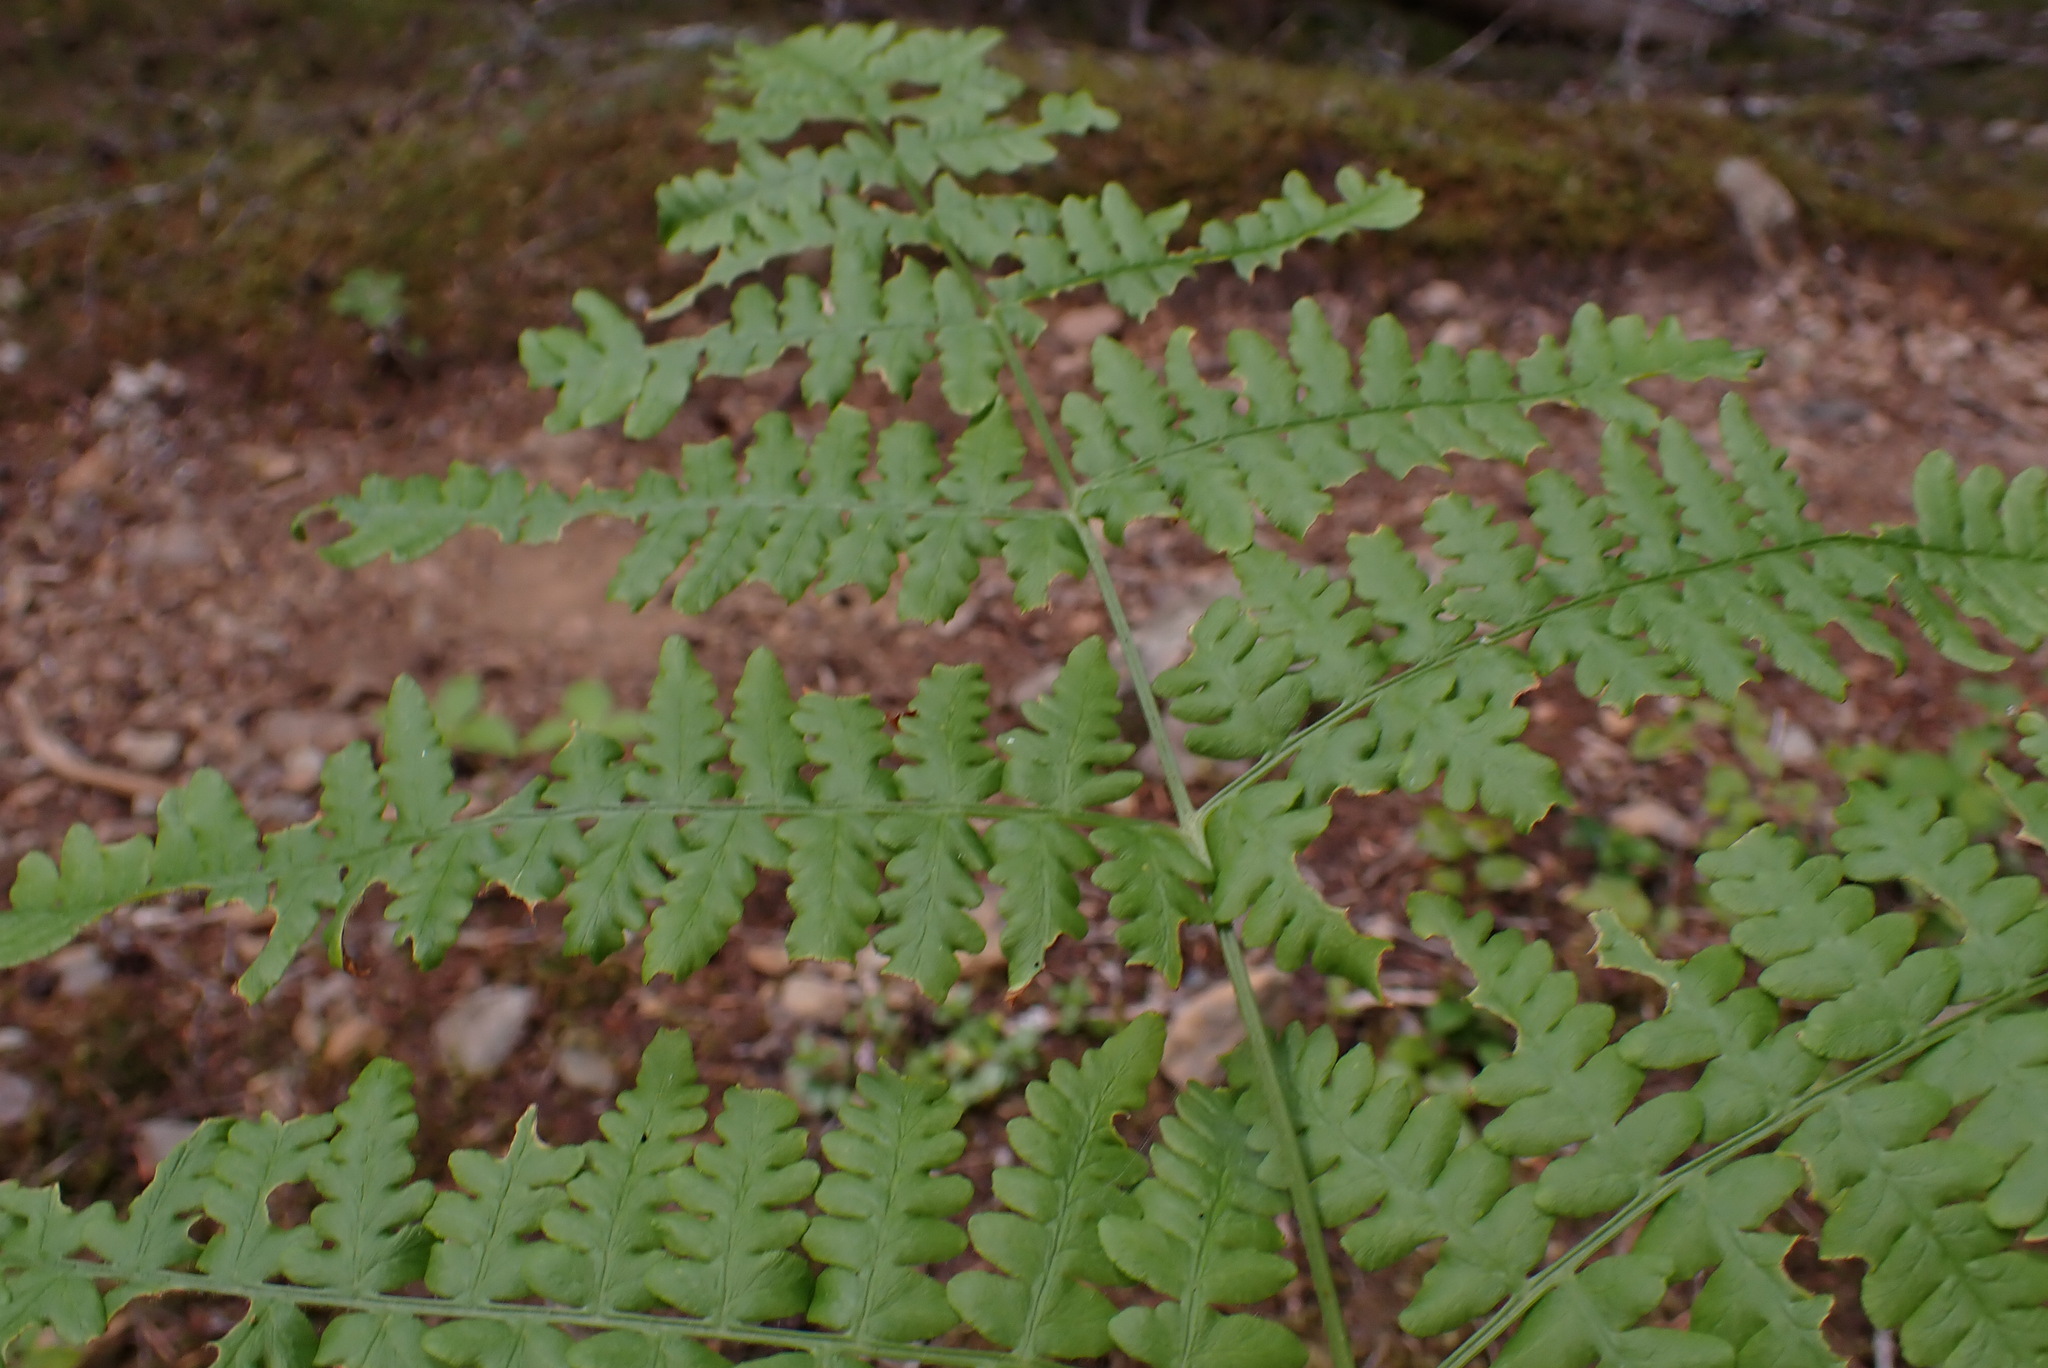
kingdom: Plantae
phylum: Tracheophyta
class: Polypodiopsida
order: Polypodiales
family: Dennstaedtiaceae
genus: Pteridium
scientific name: Pteridium aquilinum
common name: Bracken
